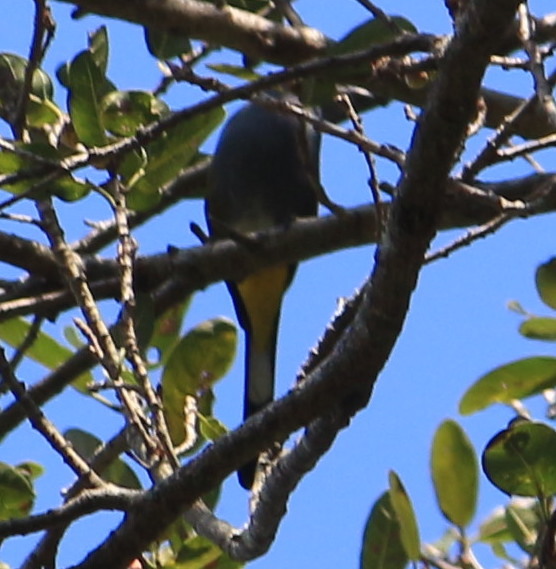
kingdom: Animalia
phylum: Chordata
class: Aves
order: Passeriformes
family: Ptilogonatidae
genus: Ptilogonys
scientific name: Ptilogonys cinereus
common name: Gray silky-flycatcher
